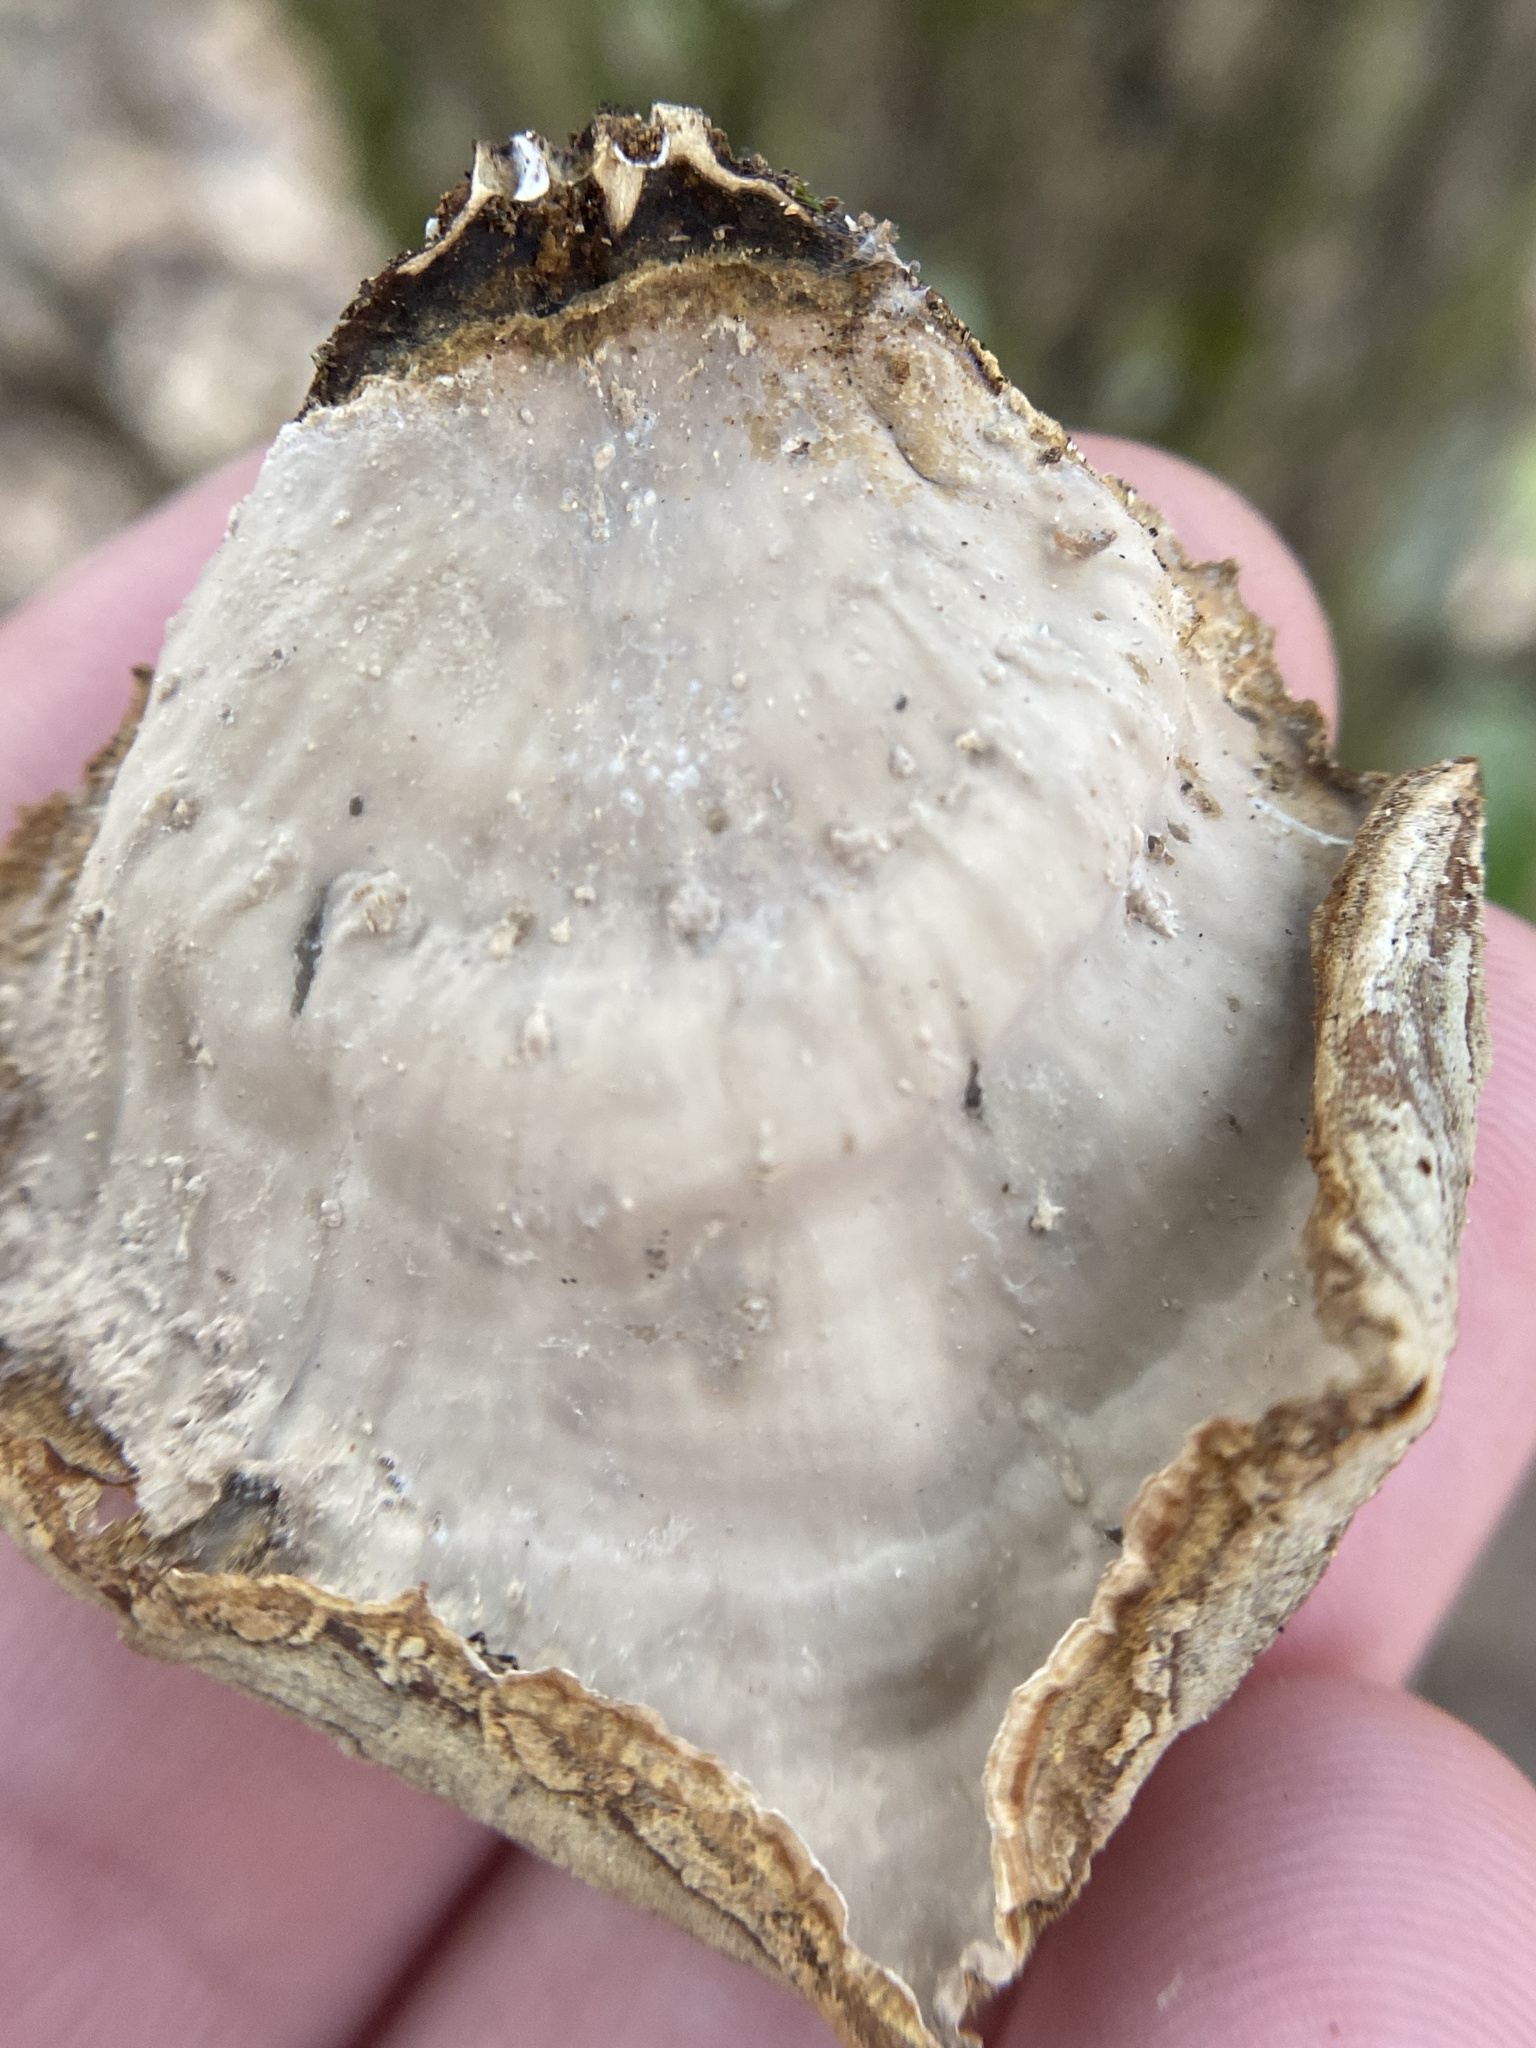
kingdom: Fungi
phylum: Basidiomycota
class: Agaricomycetes
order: Russulales
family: Stereaceae
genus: Stereum
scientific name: Stereum lobatum
